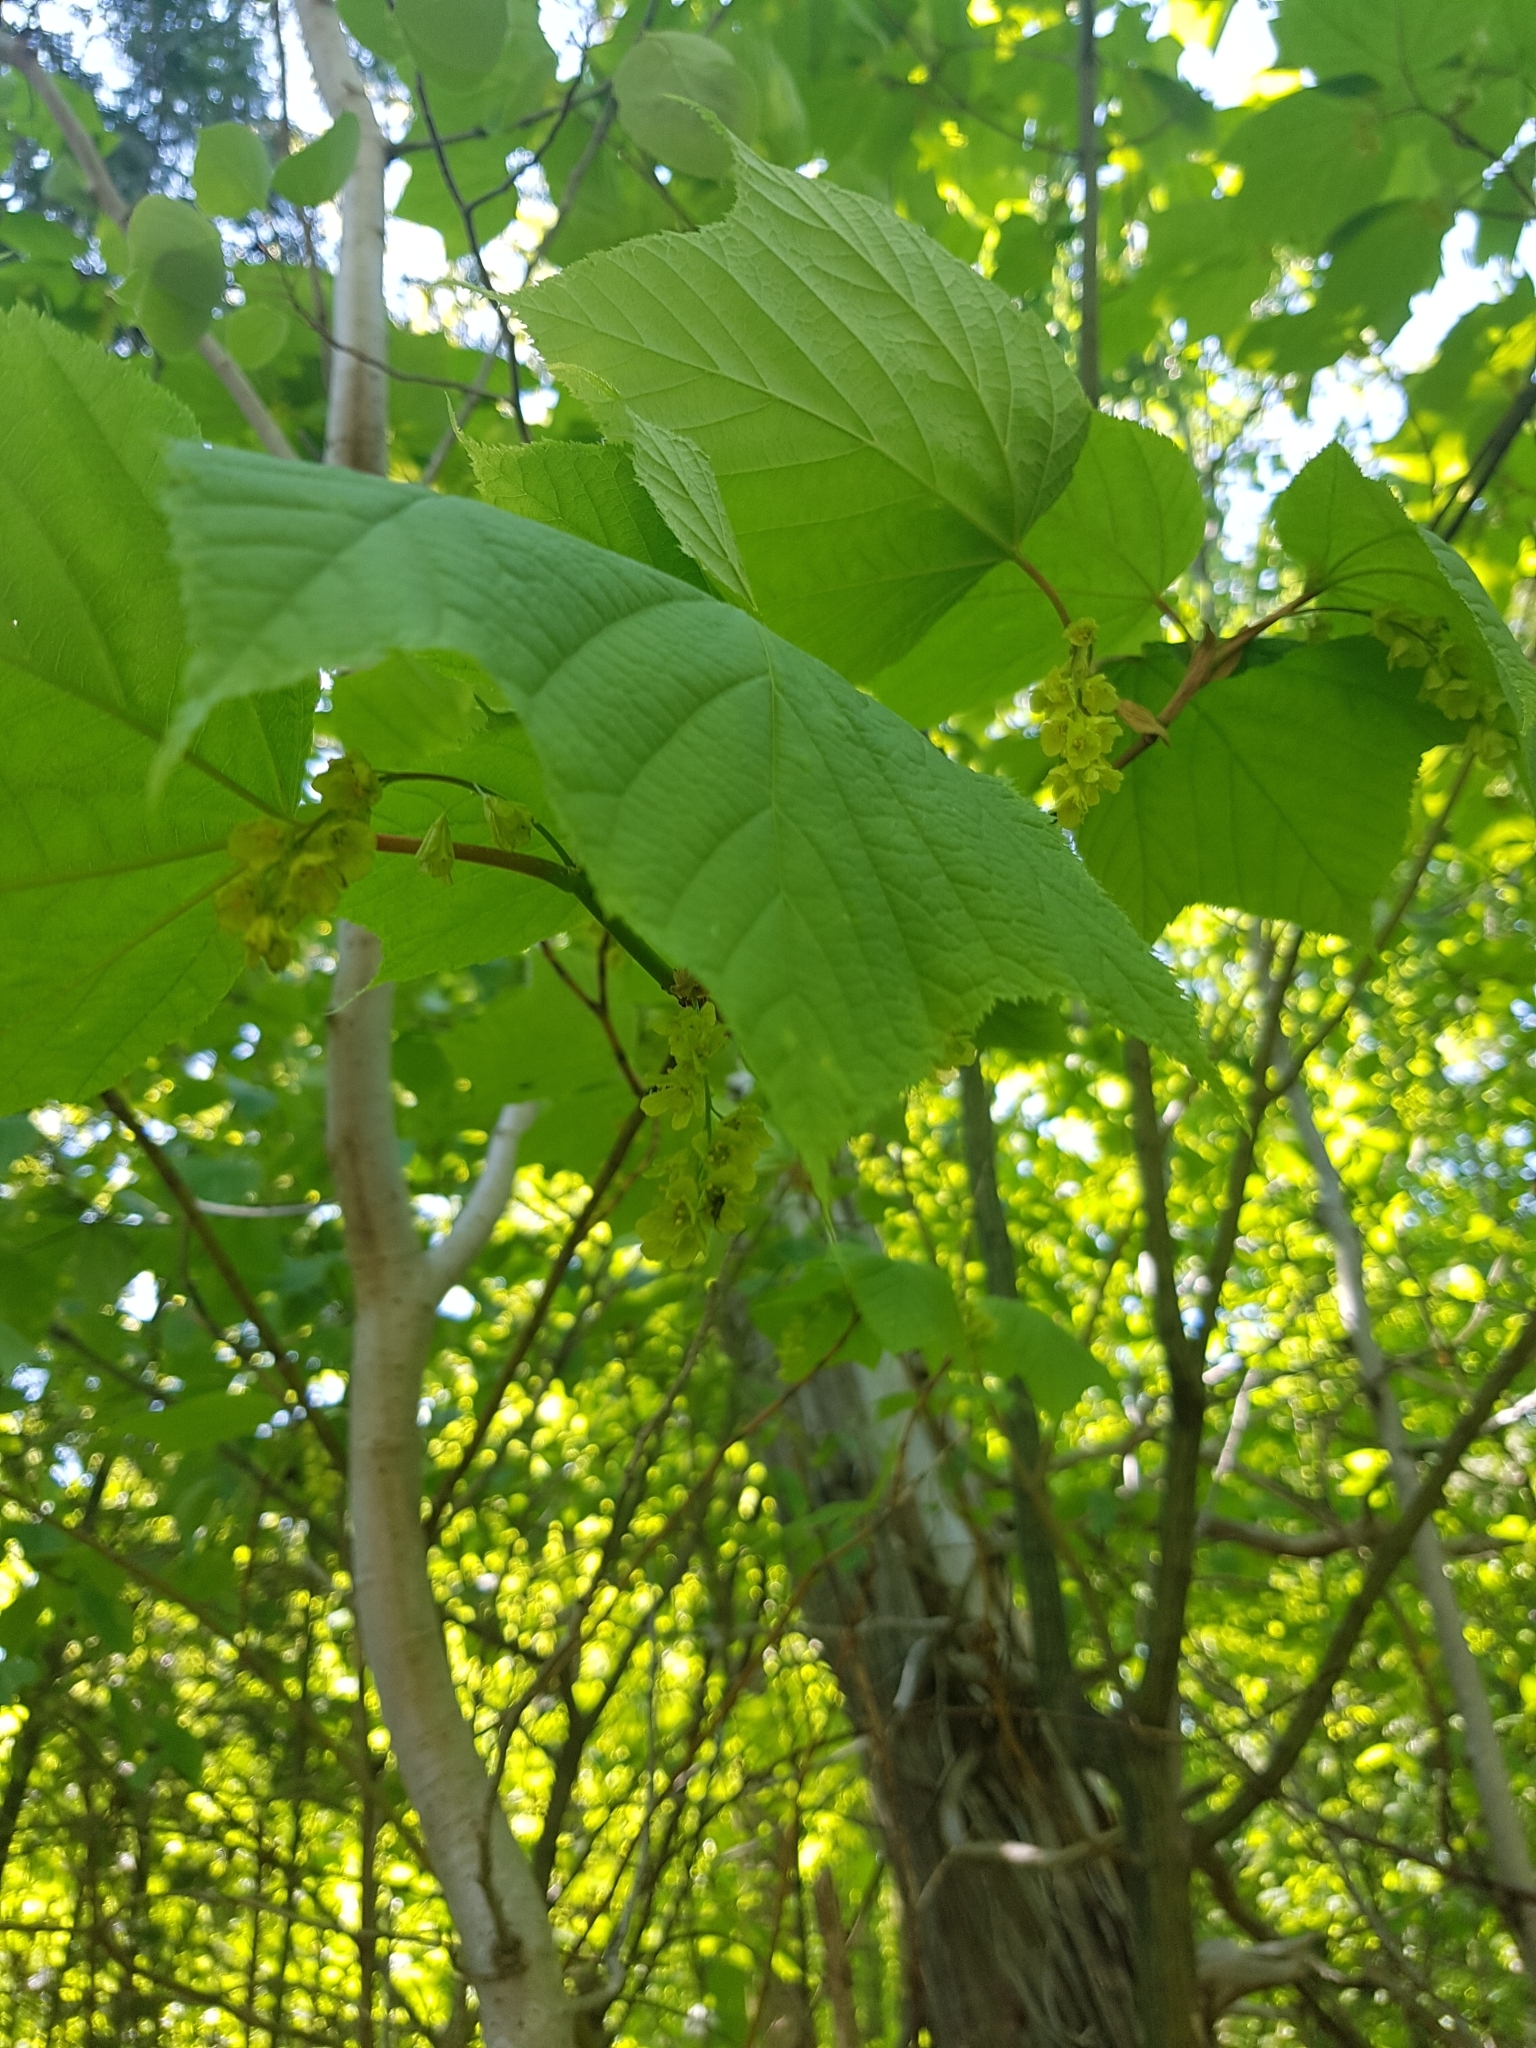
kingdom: Plantae
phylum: Tracheophyta
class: Magnoliopsida
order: Sapindales
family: Sapindaceae
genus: Acer
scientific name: Acer pensylvanicum
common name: Moosewood
